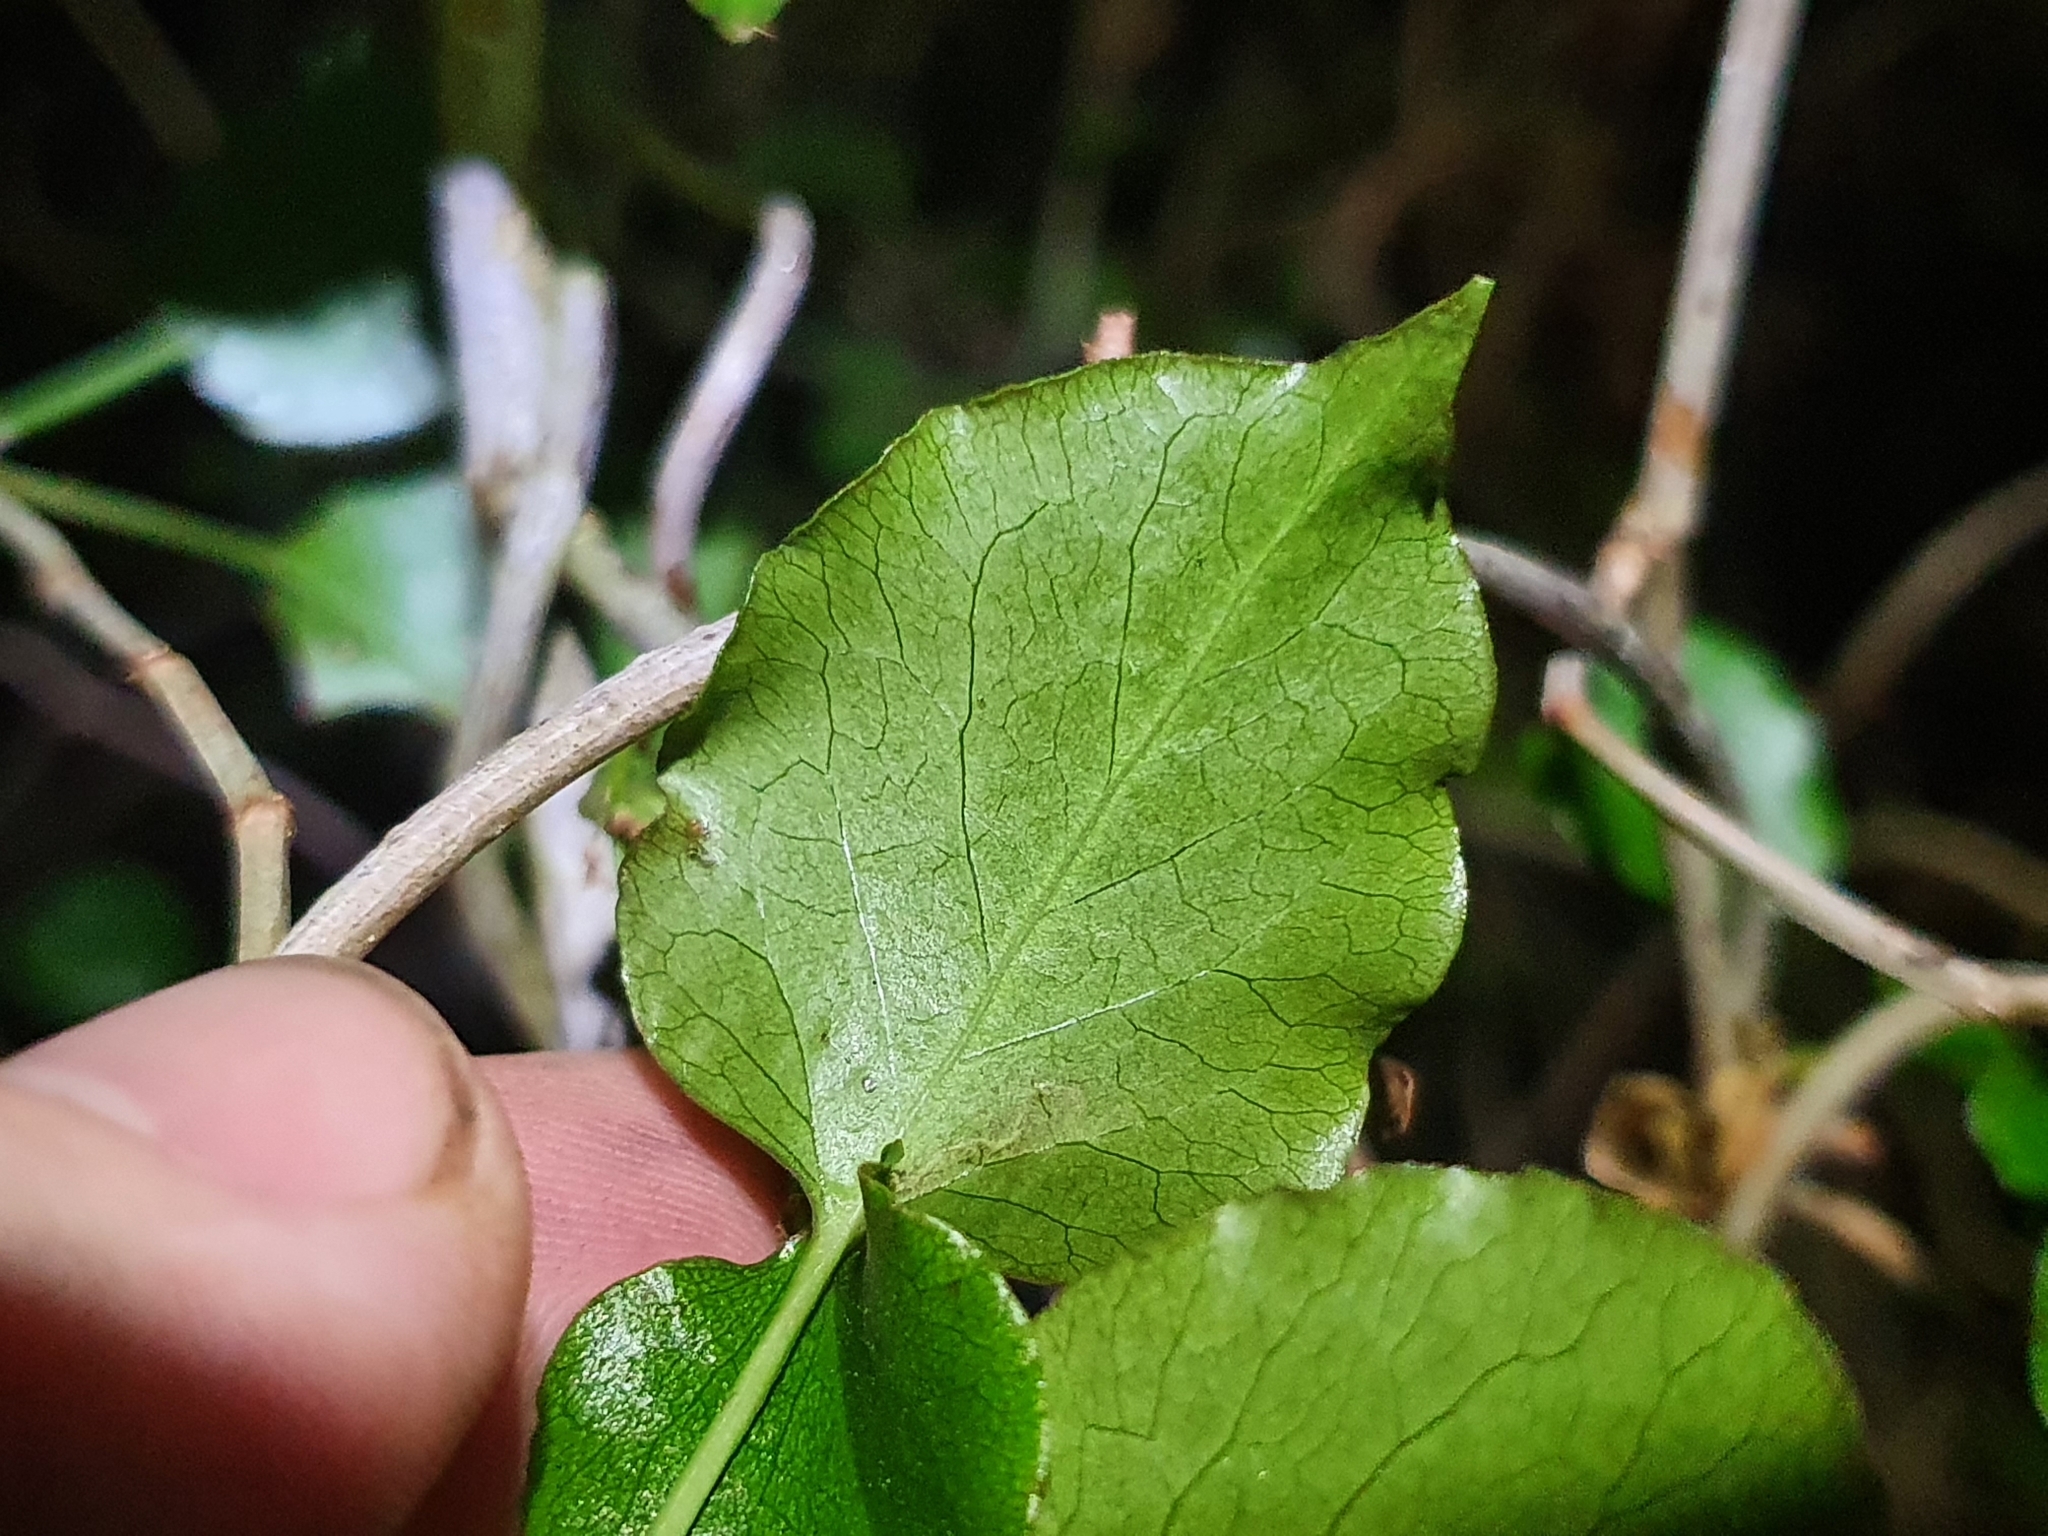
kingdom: Plantae
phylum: Tracheophyta
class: Magnoliopsida
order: Caryophyllales
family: Polygonaceae
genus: Muehlenbeckia
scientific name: Muehlenbeckia australis
